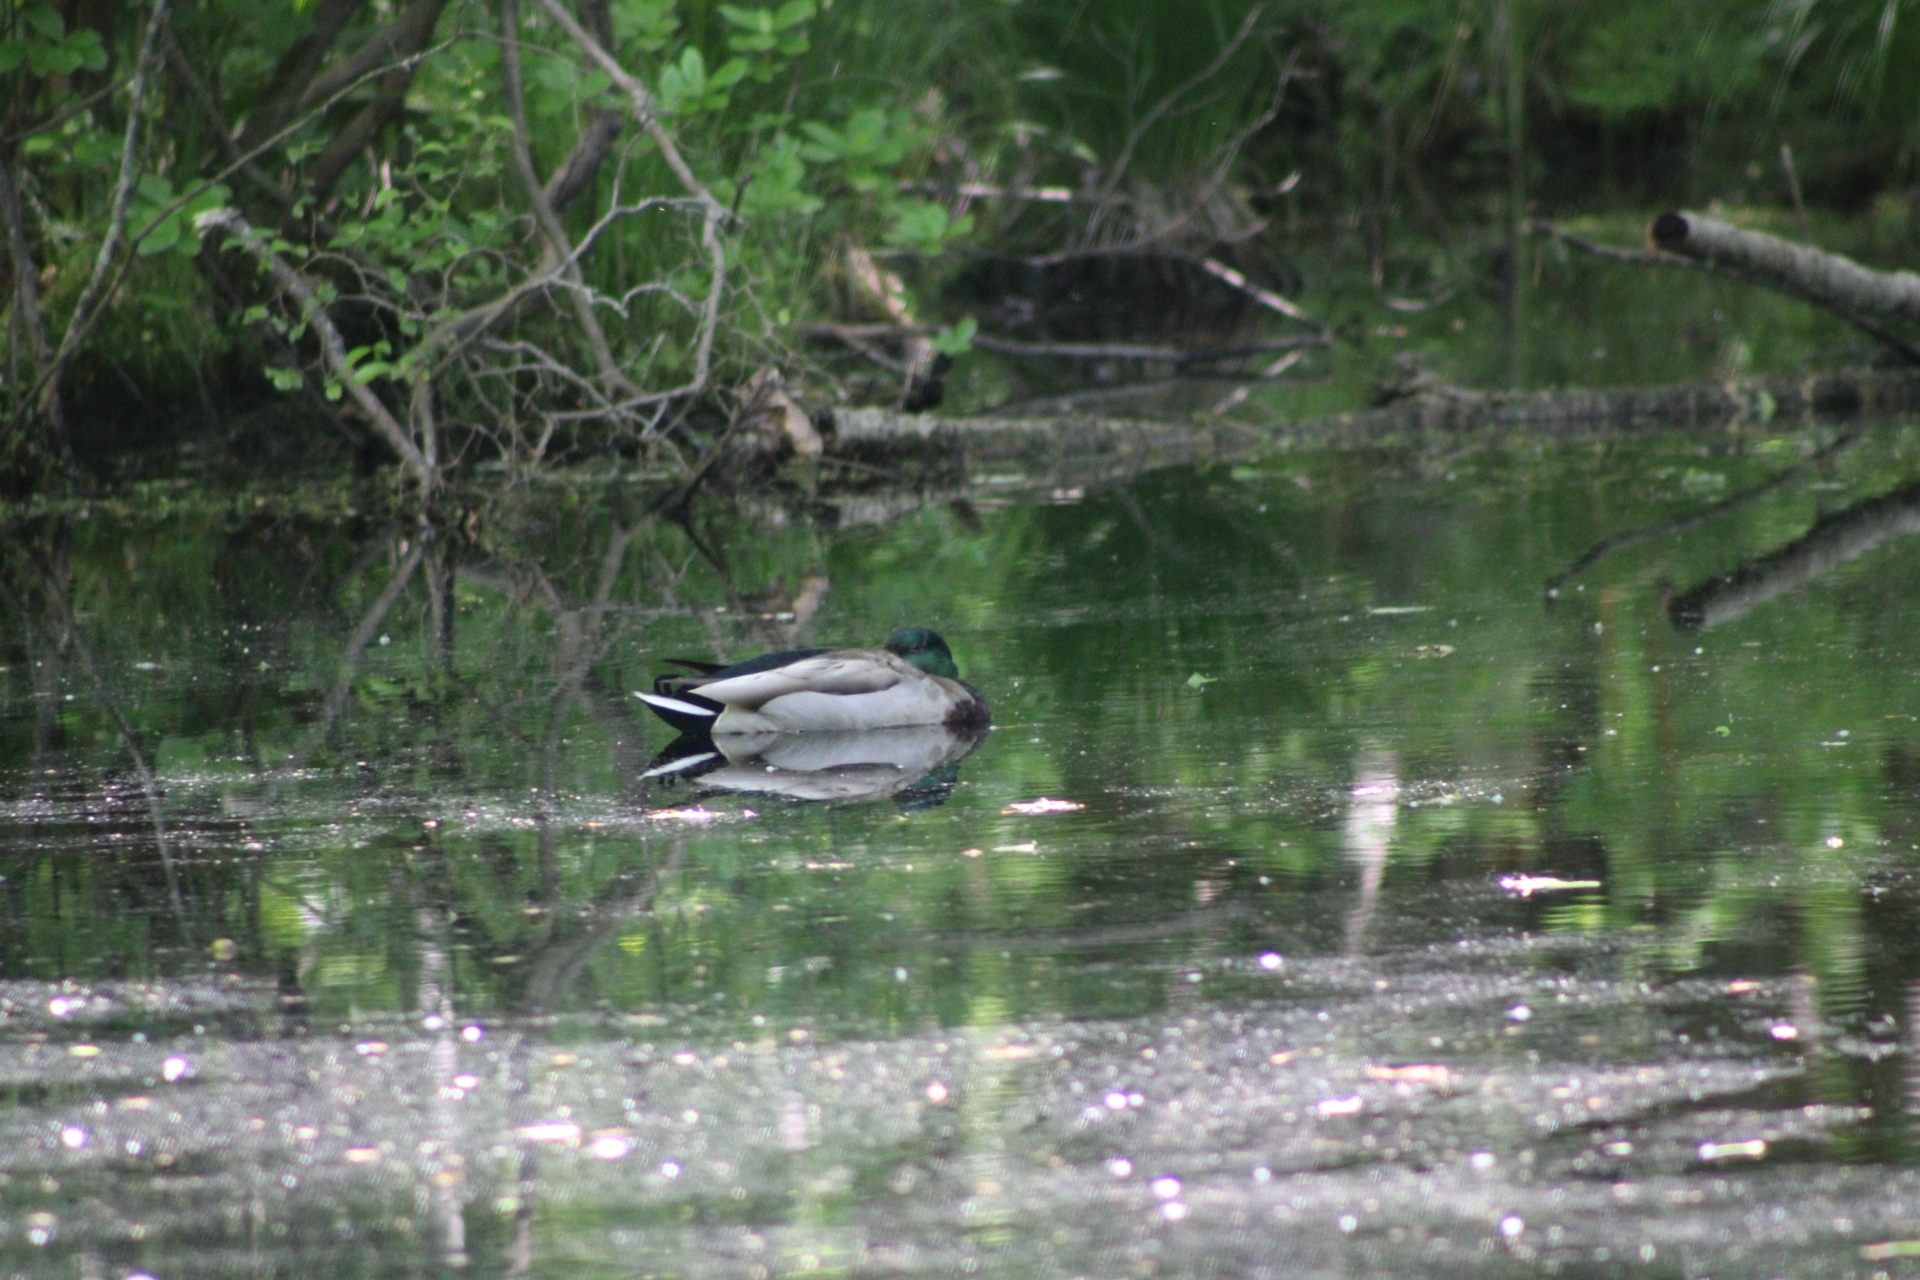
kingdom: Animalia
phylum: Chordata
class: Aves
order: Anseriformes
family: Anatidae
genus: Anas
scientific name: Anas platyrhynchos
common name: Mallard
